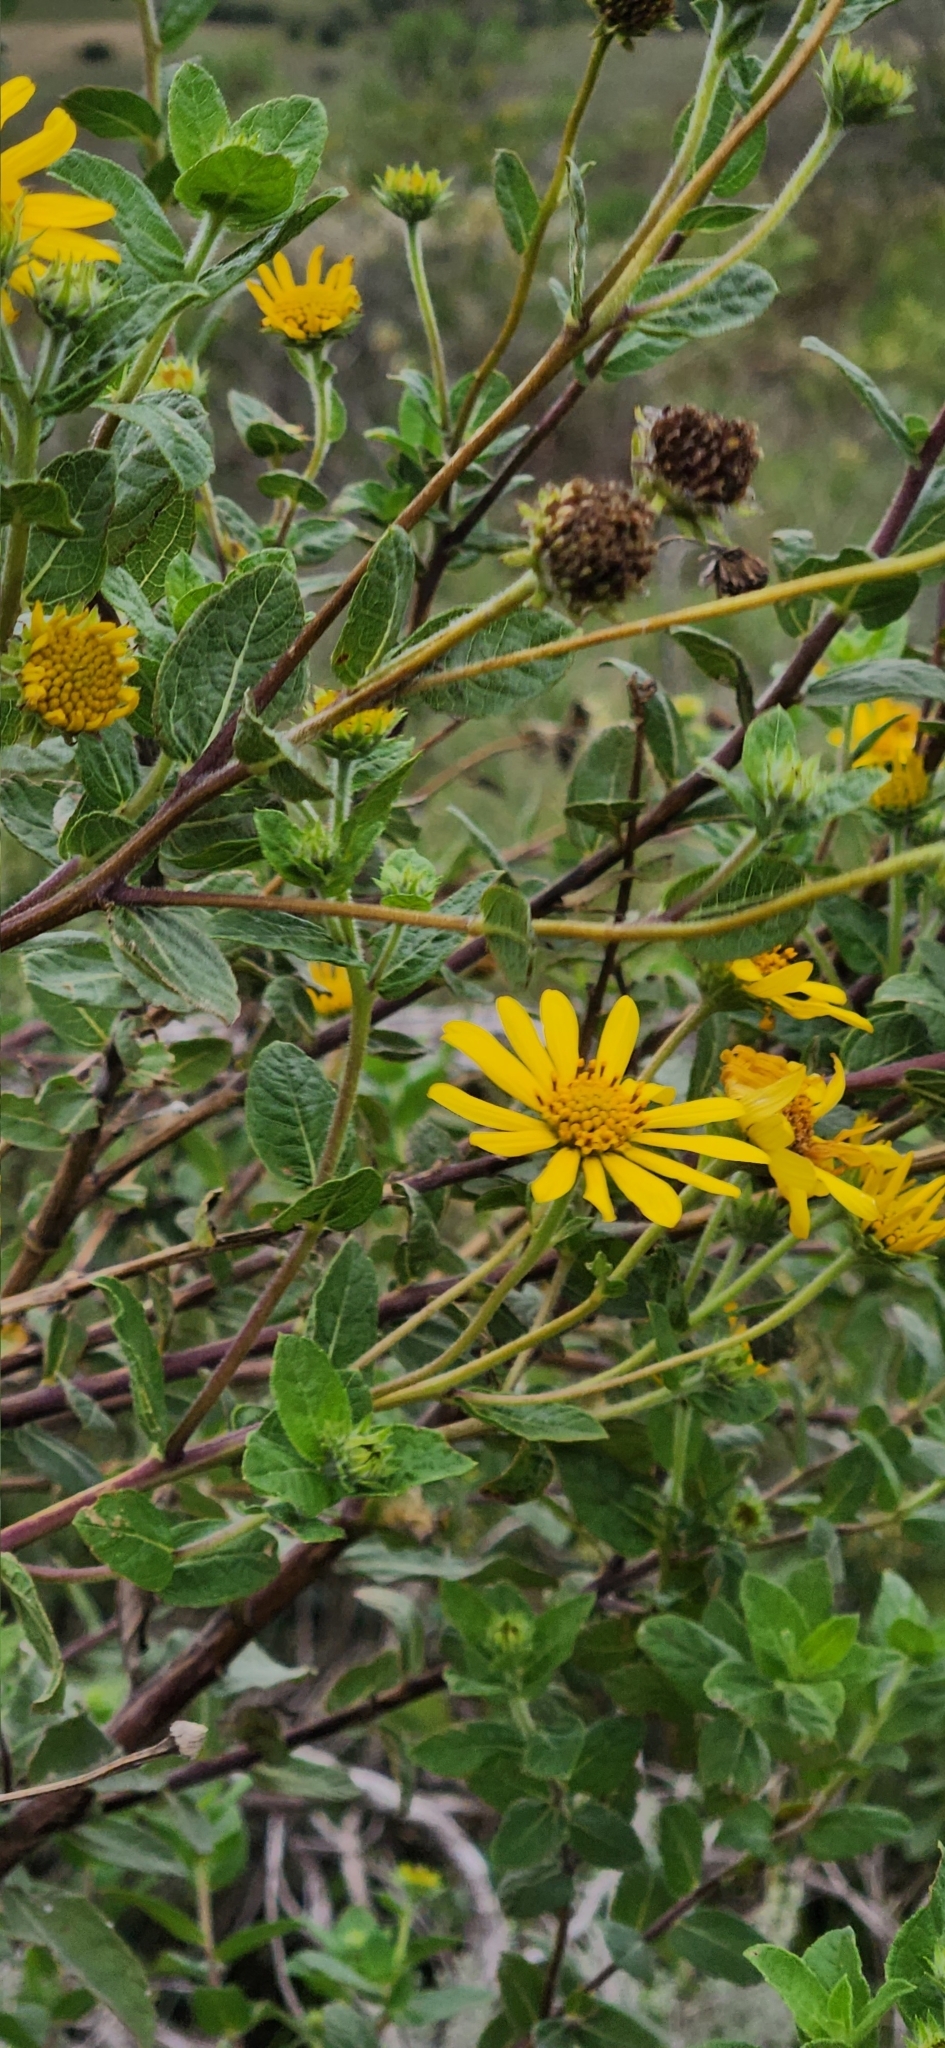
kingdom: Plantae
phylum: Tracheophyta
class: Magnoliopsida
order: Asterales
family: Asteraceae
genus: Aldama
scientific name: Aldama breviflosculosa
